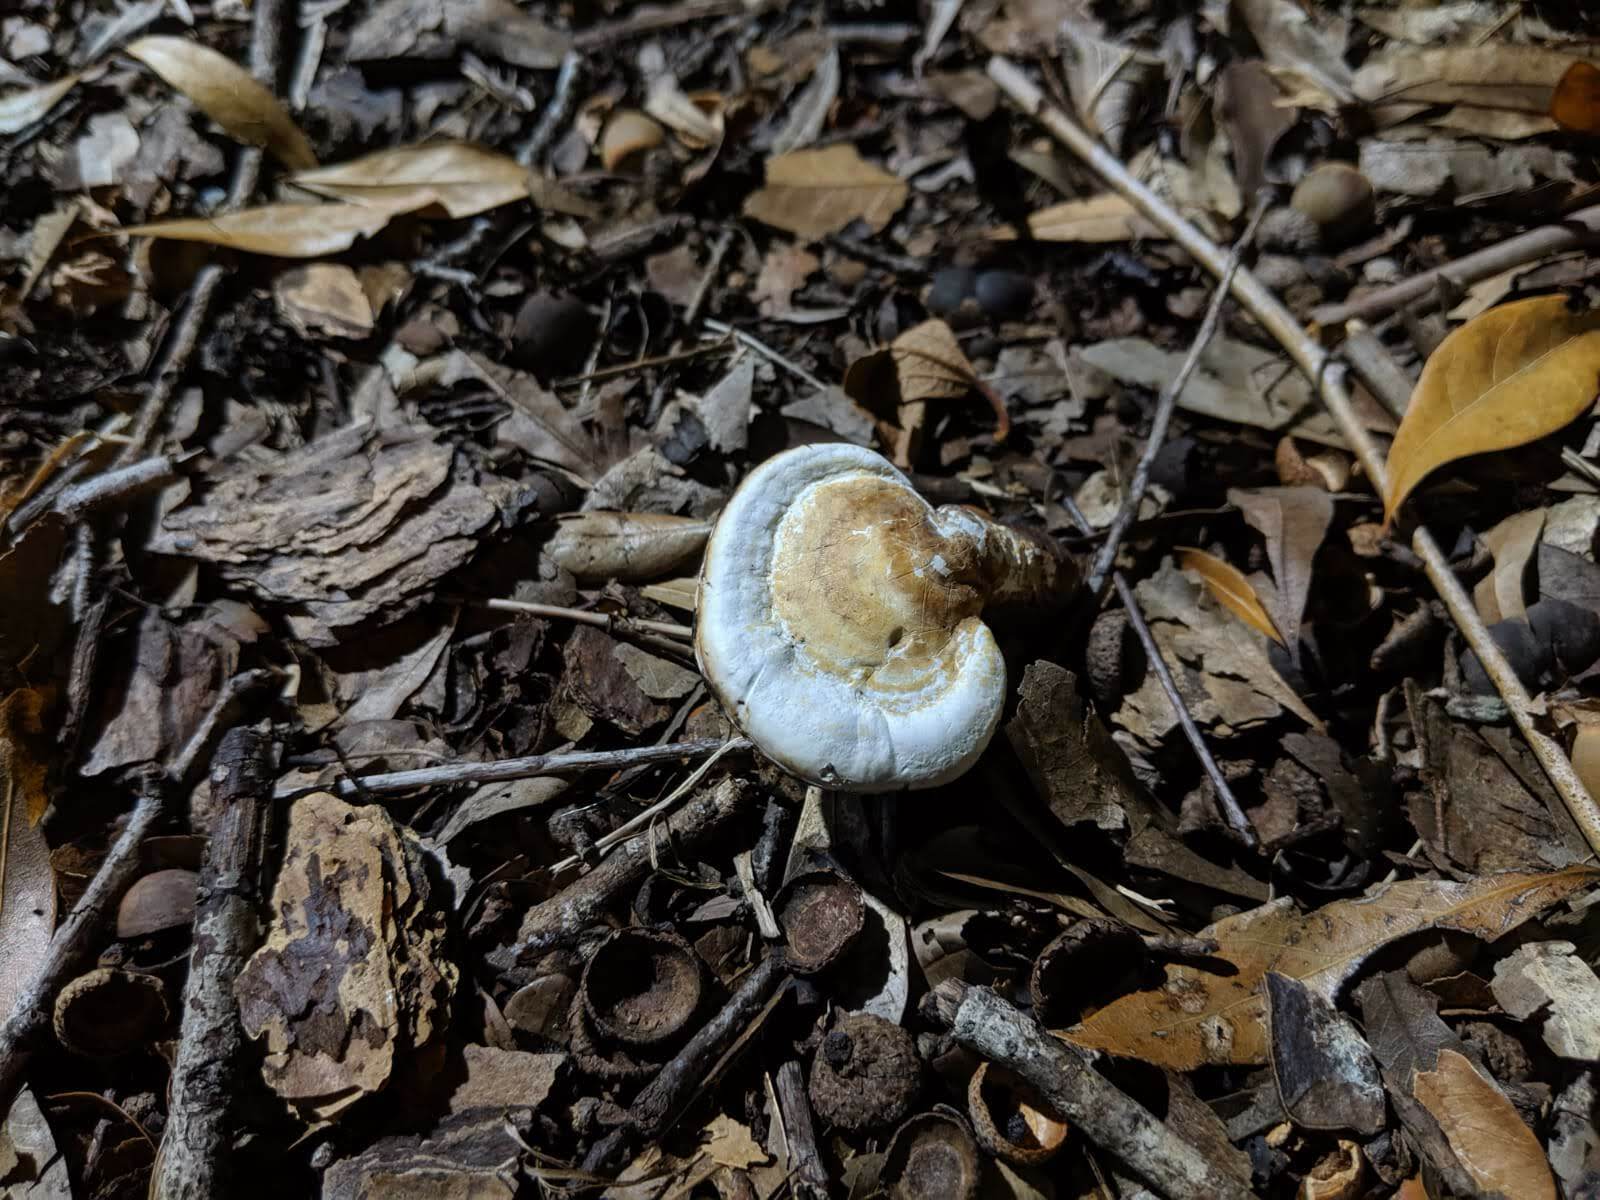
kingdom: Fungi
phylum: Basidiomycota
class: Agaricomycetes
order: Polyporales
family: Polyporaceae
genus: Ganoderma
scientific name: Ganoderma curtisii
